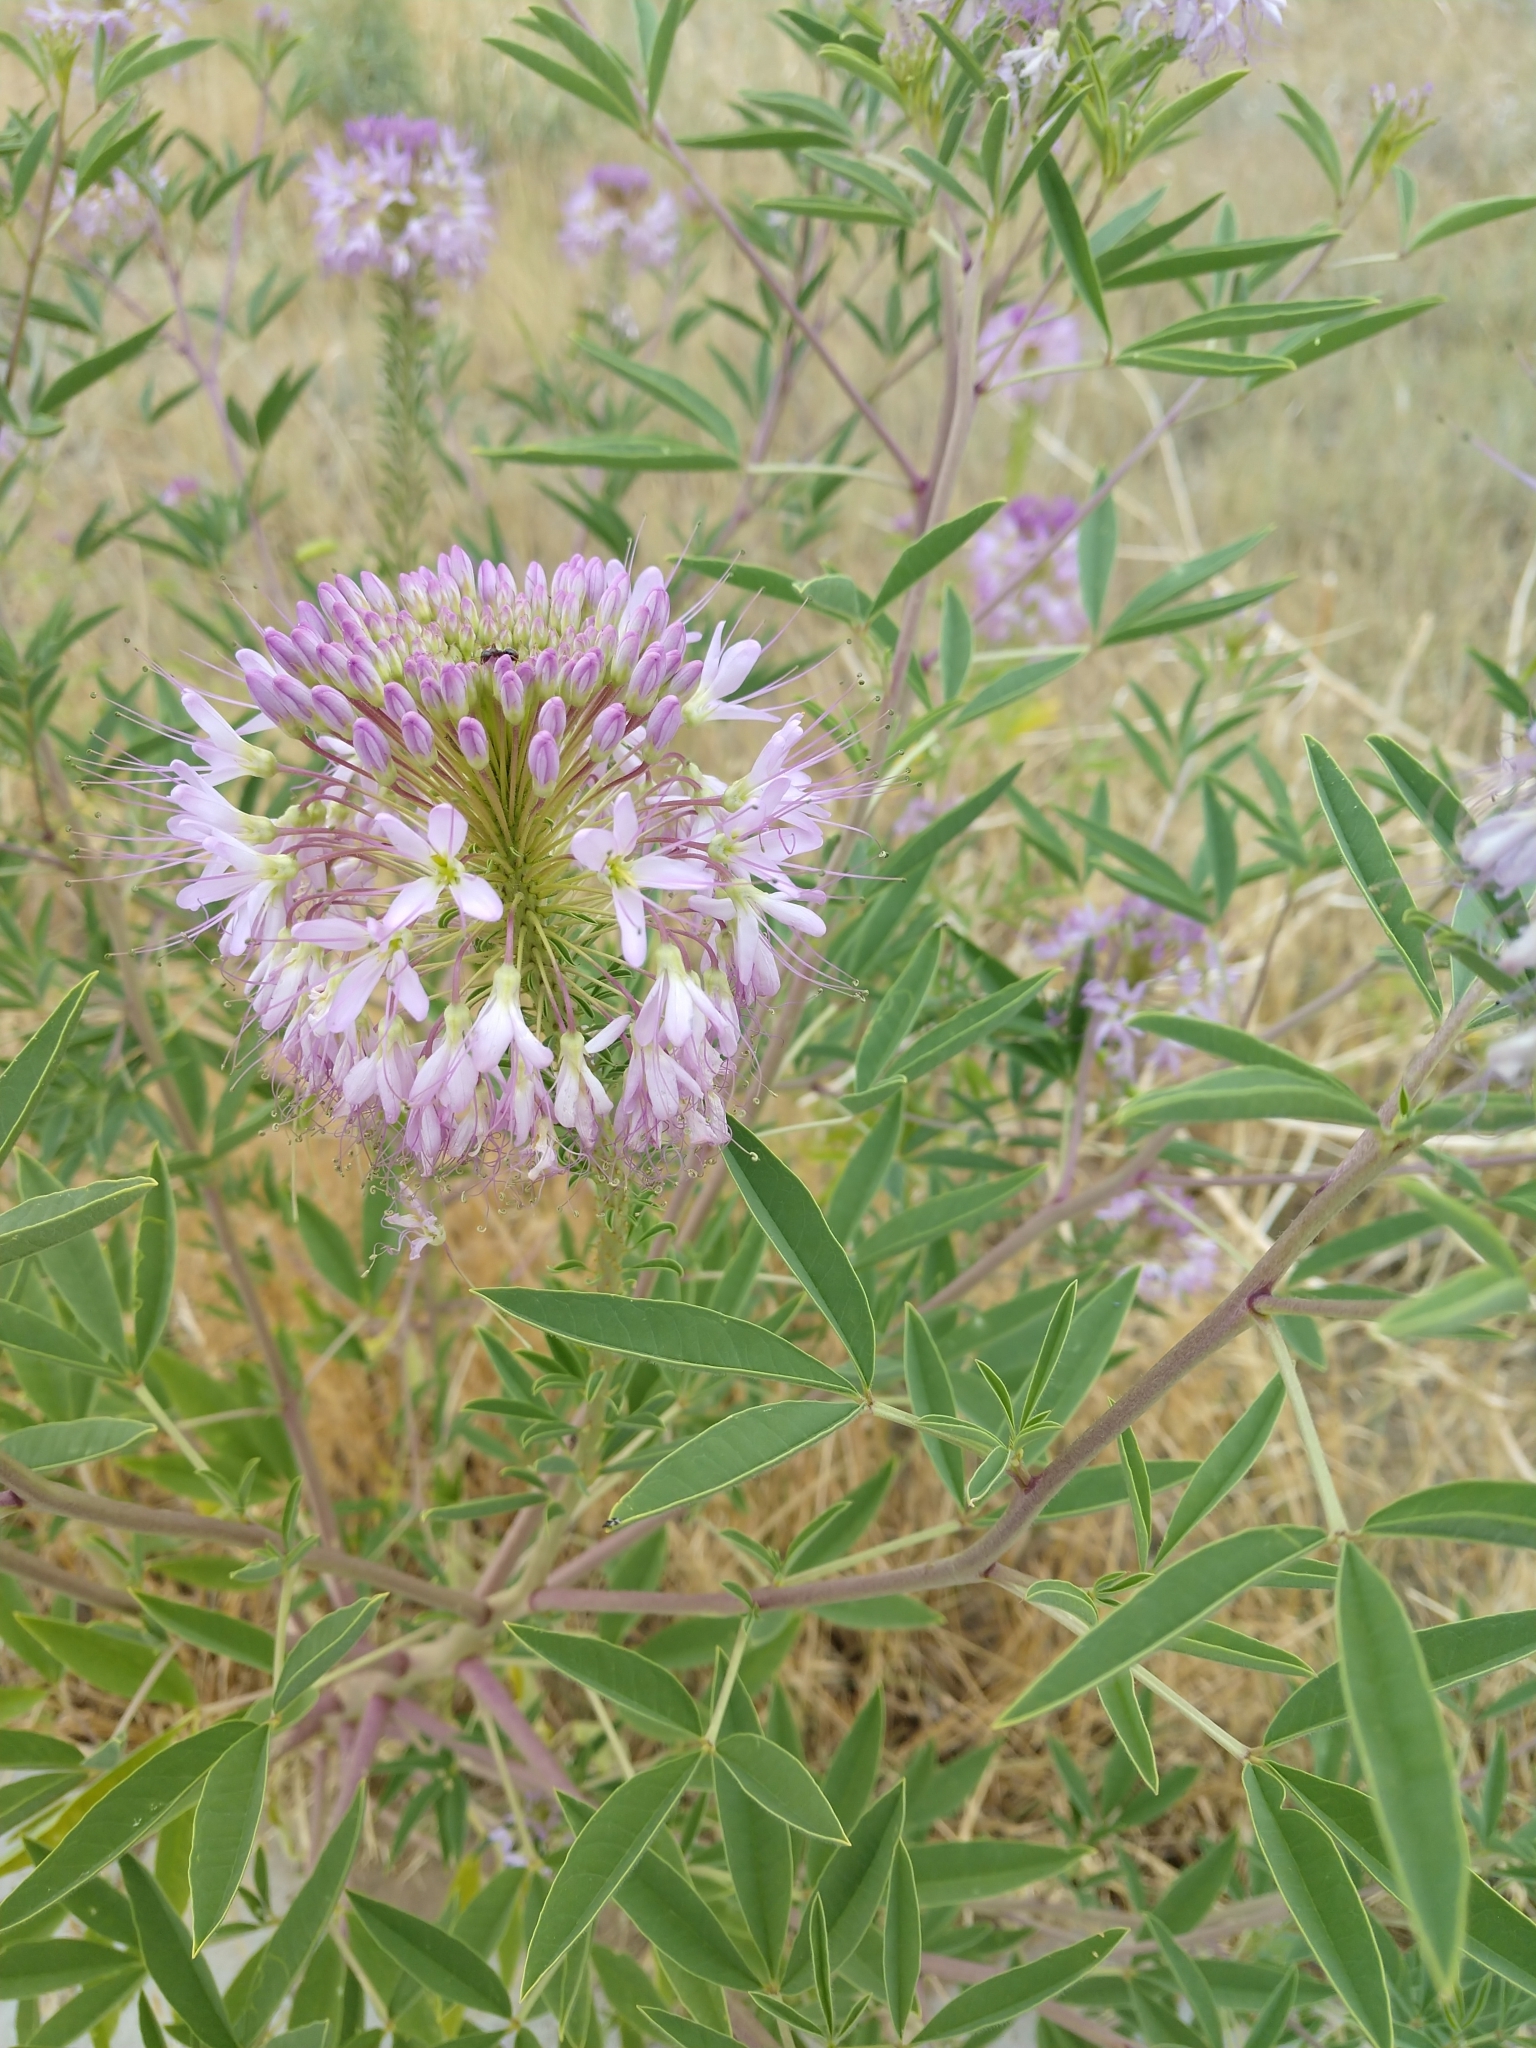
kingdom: Plantae
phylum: Tracheophyta
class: Magnoliopsida
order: Brassicales
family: Cleomaceae
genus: Cleomella
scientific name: Cleomella serrulata
